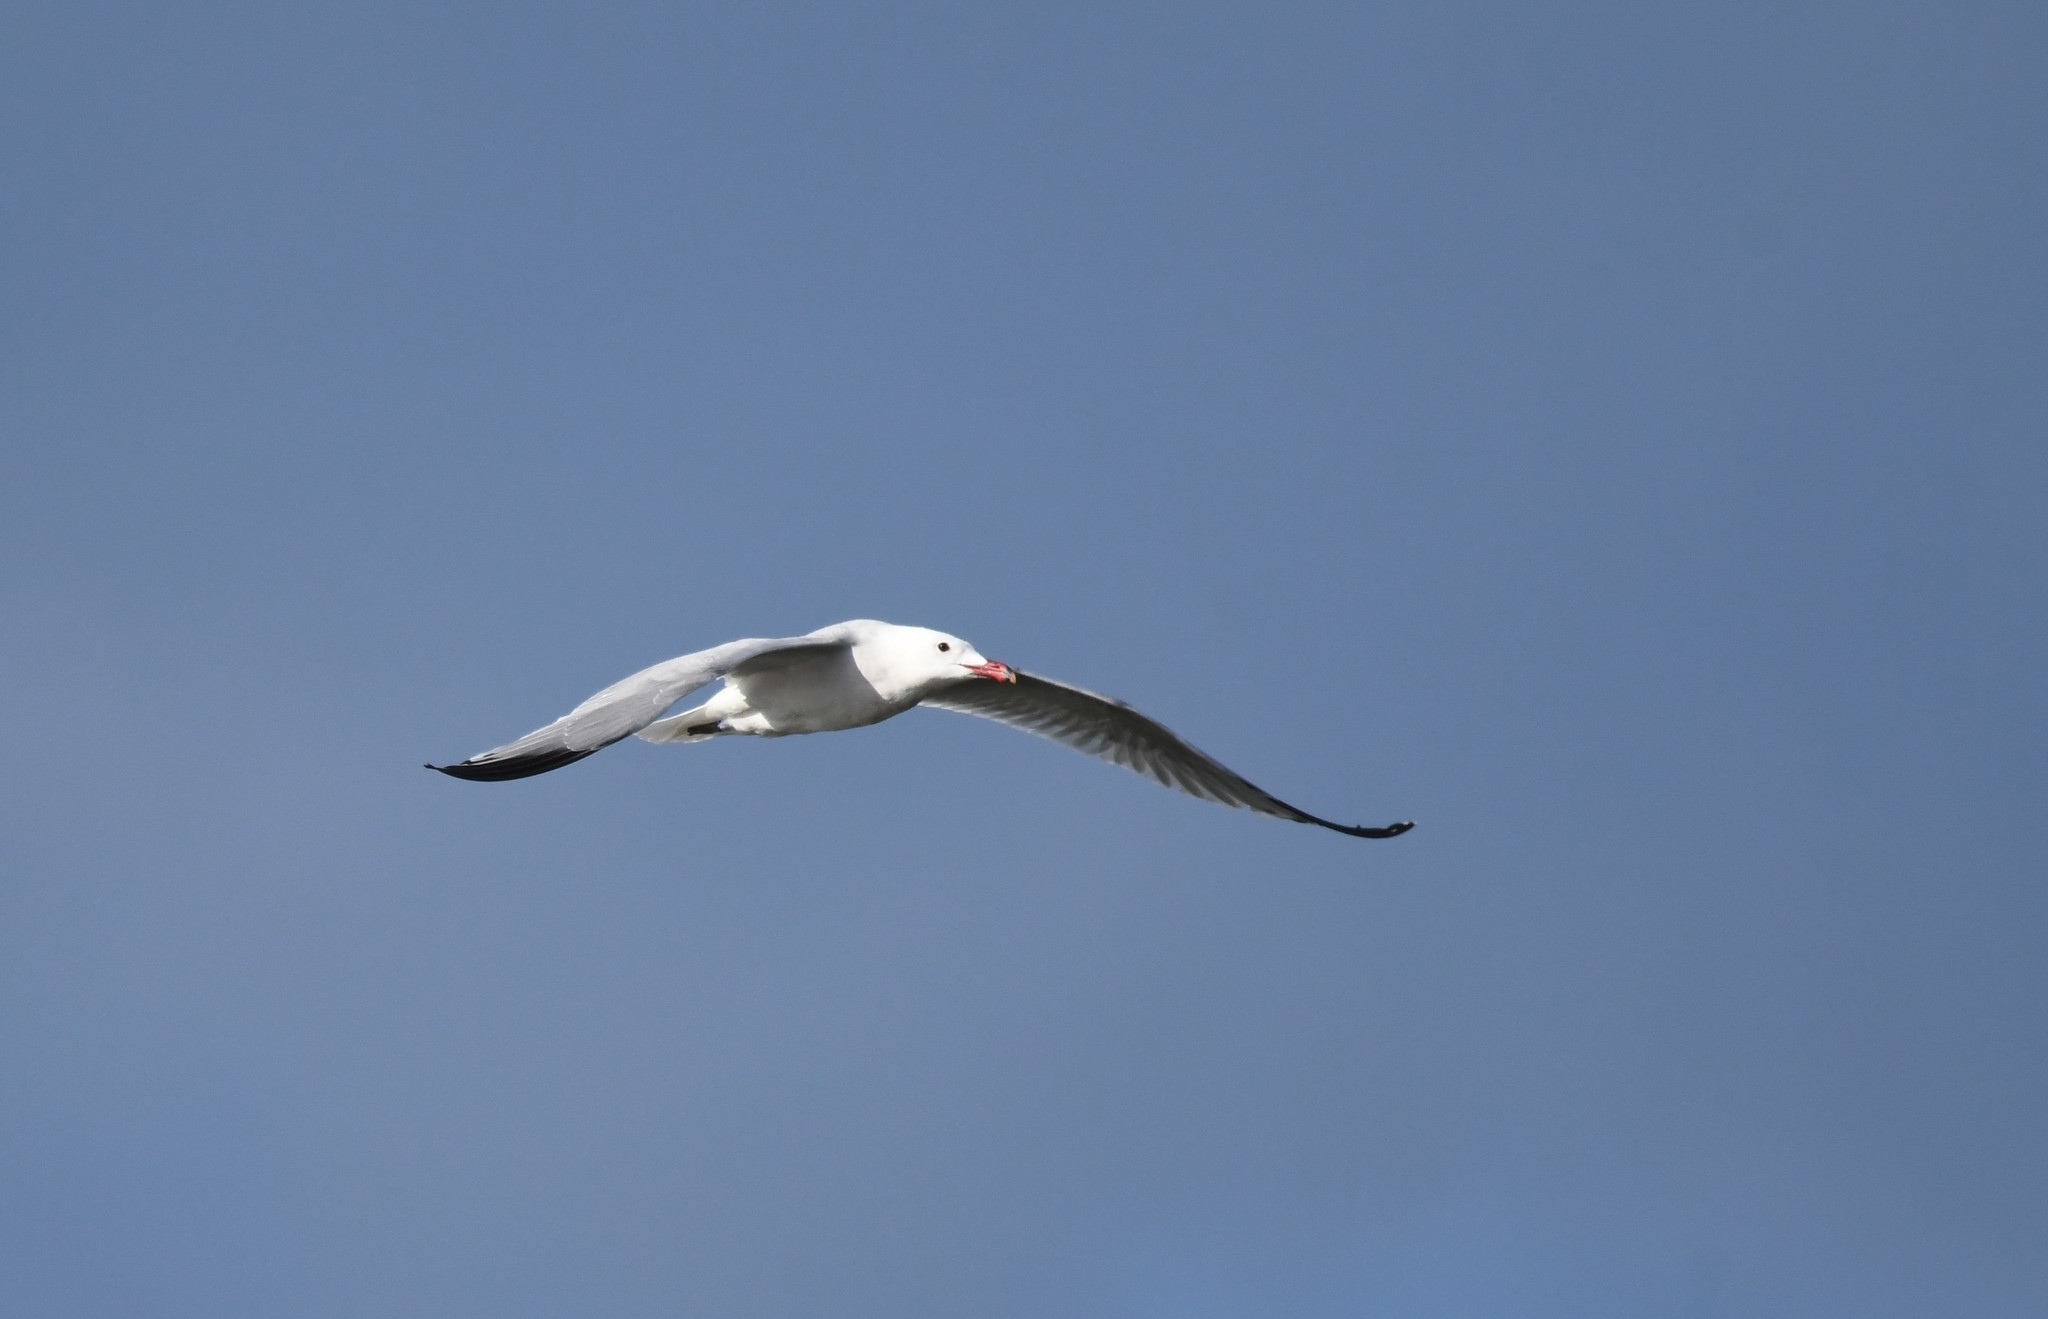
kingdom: Animalia
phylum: Chordata
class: Aves
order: Charadriiformes
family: Laridae
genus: Ichthyaetus
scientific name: Ichthyaetus audouinii
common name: Audouin's gull
